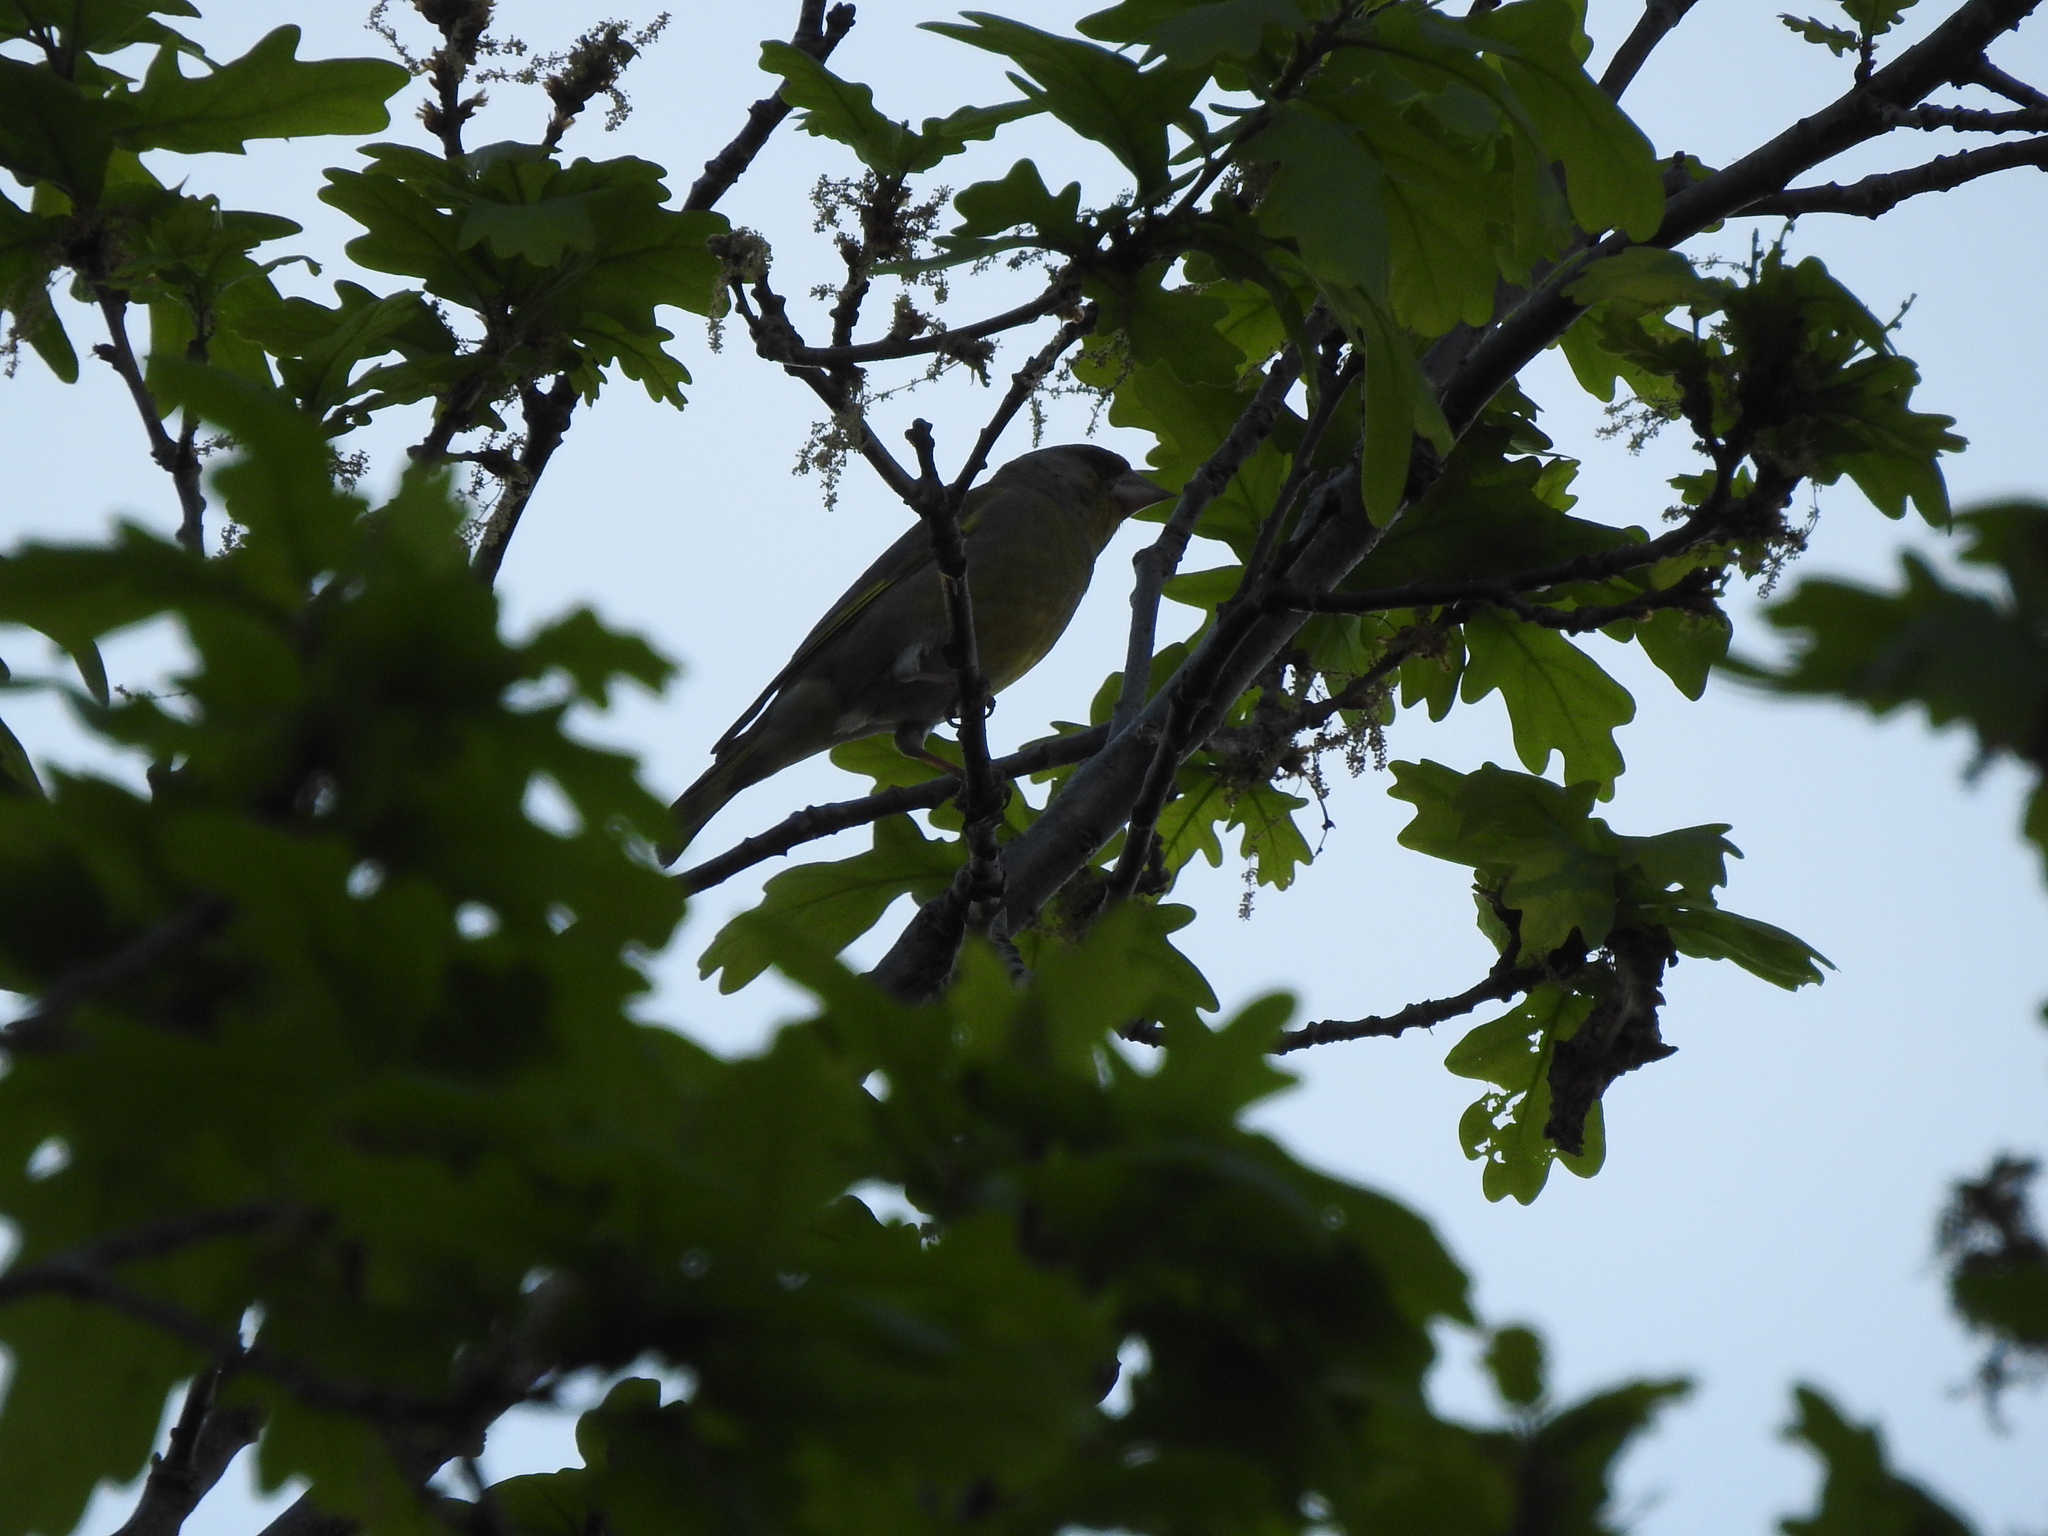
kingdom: Plantae
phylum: Tracheophyta
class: Liliopsida
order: Poales
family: Poaceae
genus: Chloris
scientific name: Chloris chloris
